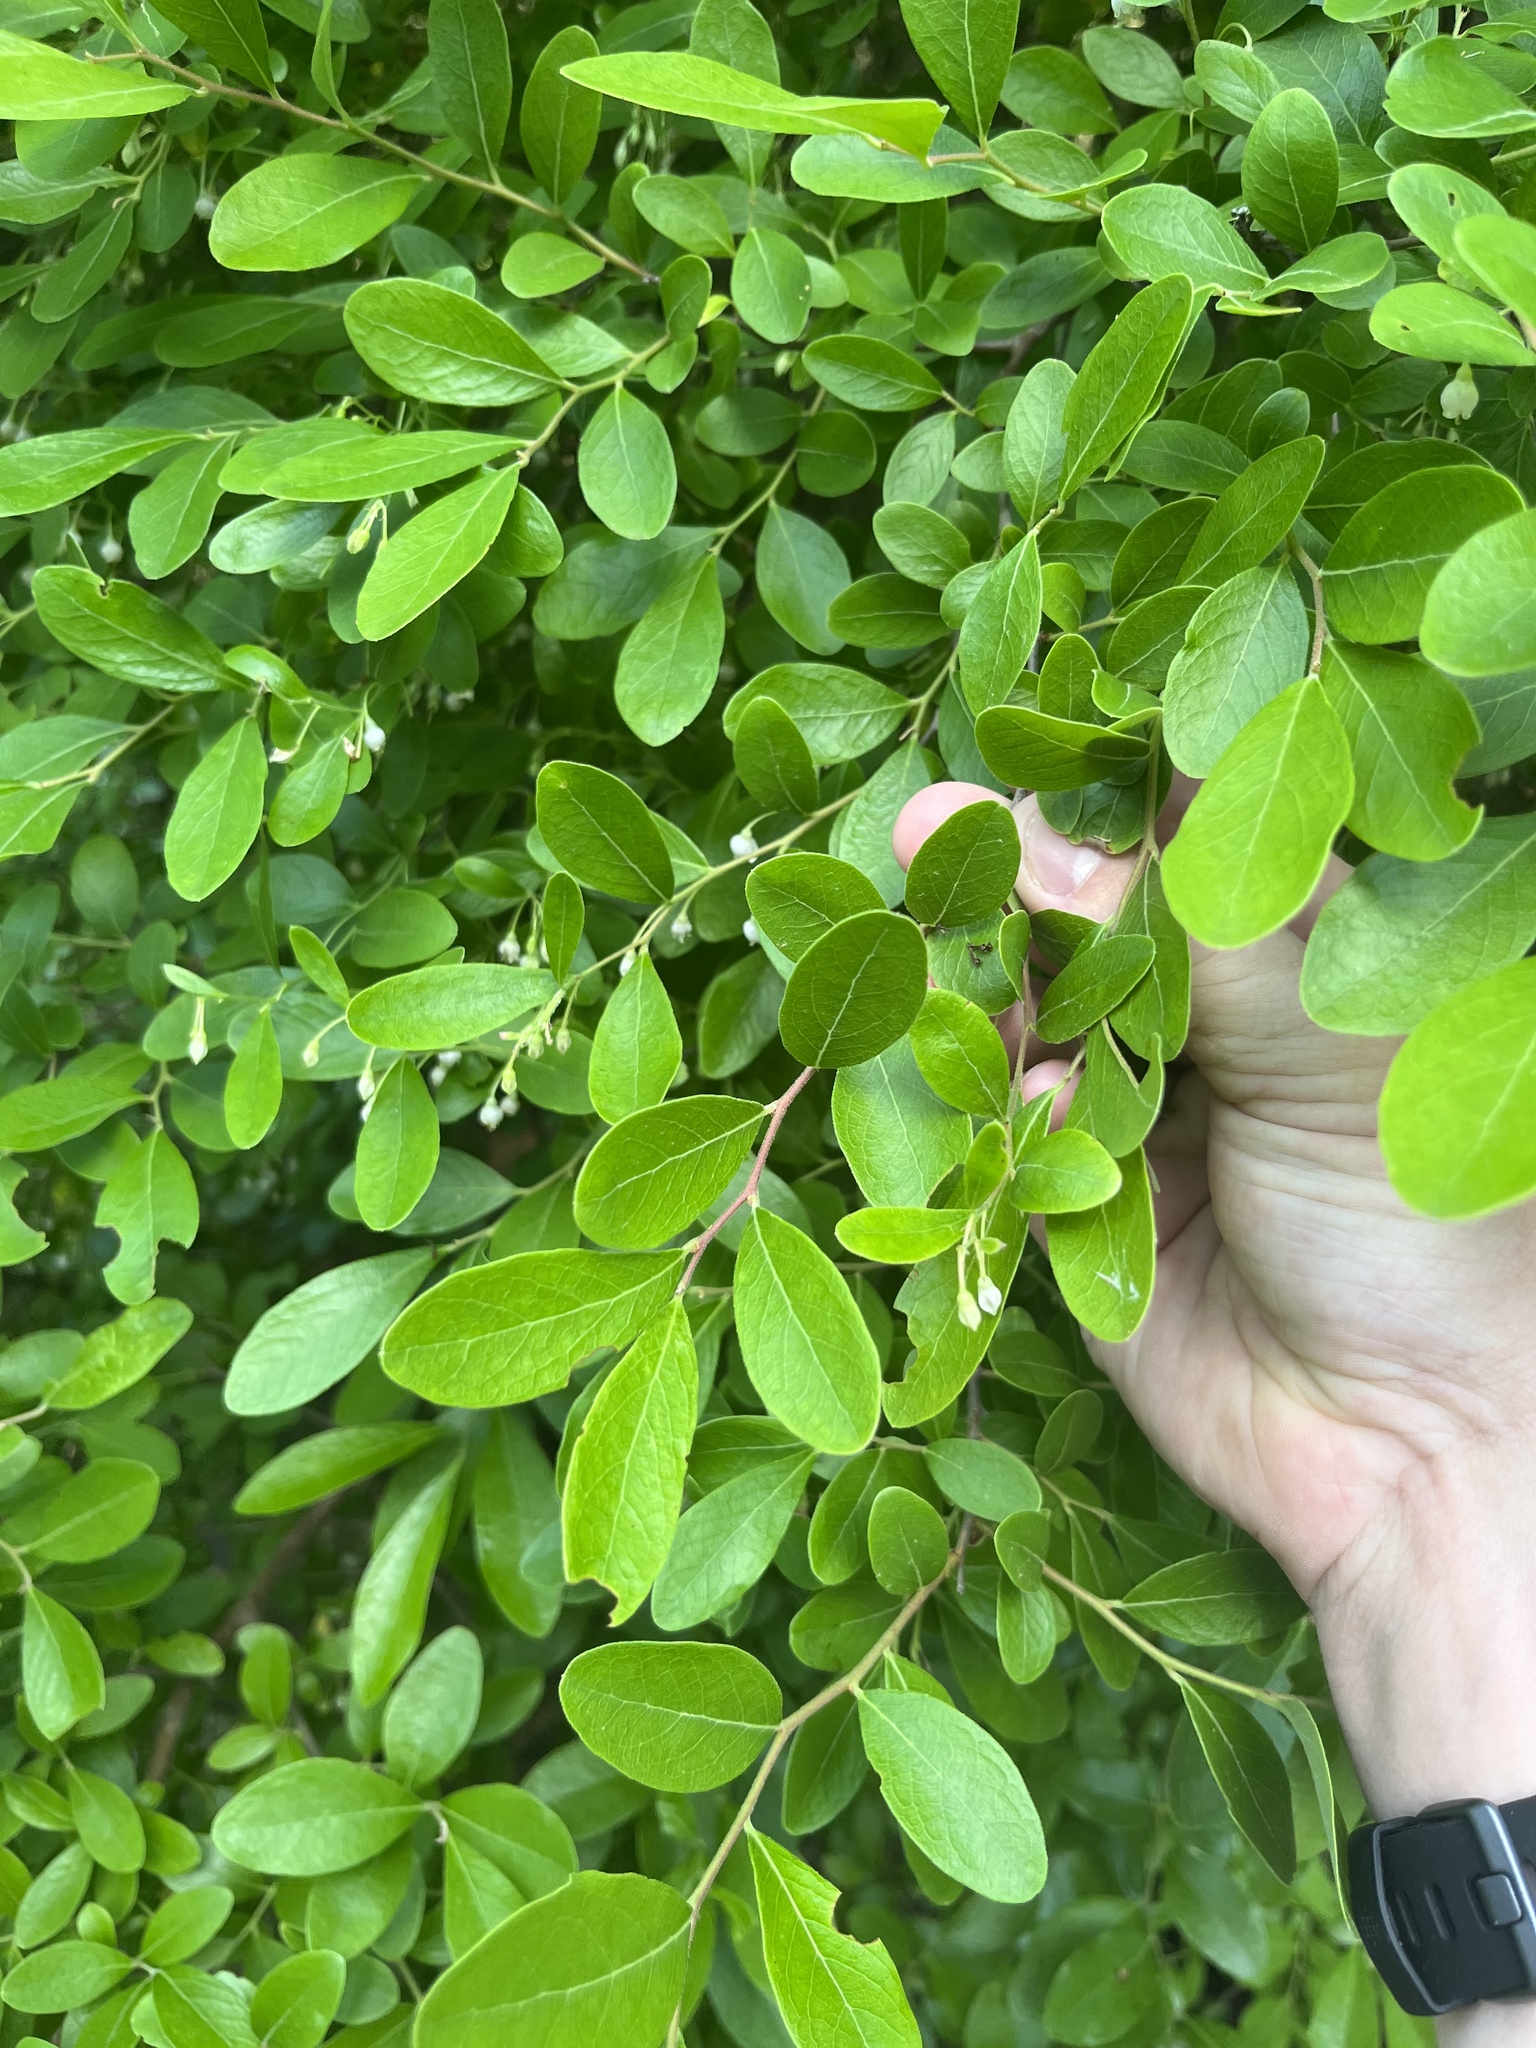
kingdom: Plantae
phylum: Tracheophyta
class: Magnoliopsida
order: Ericales
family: Ericaceae
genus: Vaccinium
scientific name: Vaccinium arboreum
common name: Farkleberry
